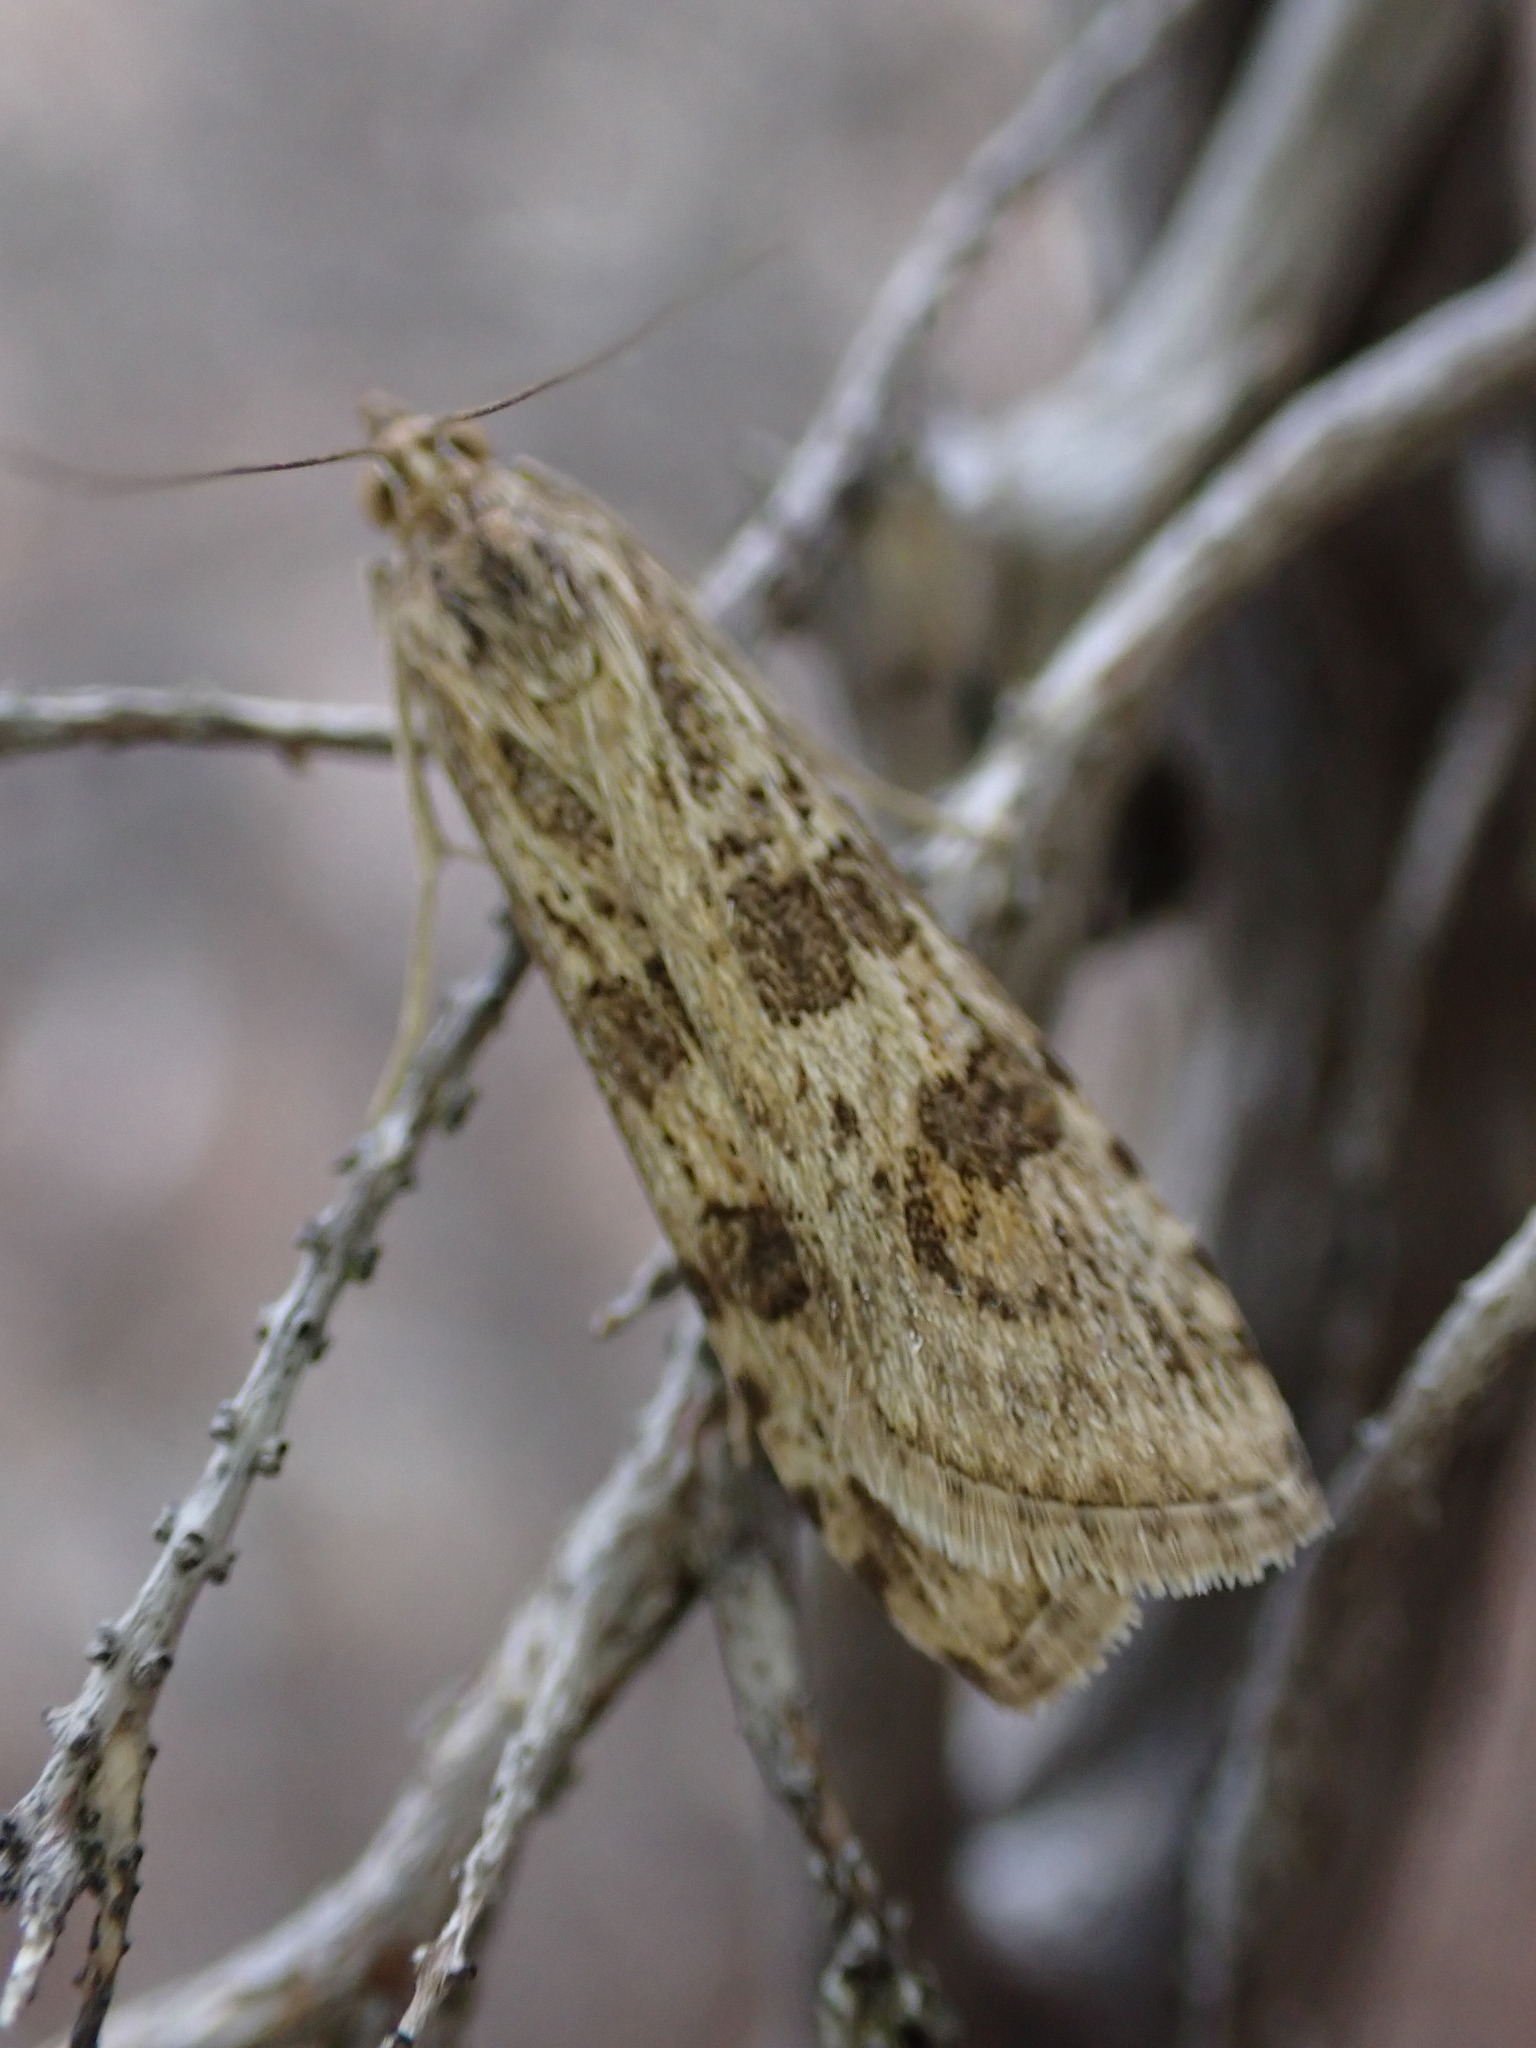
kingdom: Animalia
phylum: Arthropoda
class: Insecta
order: Lepidoptera
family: Crambidae
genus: Nomophila
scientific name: Nomophila noctuella
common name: Rush veneer
